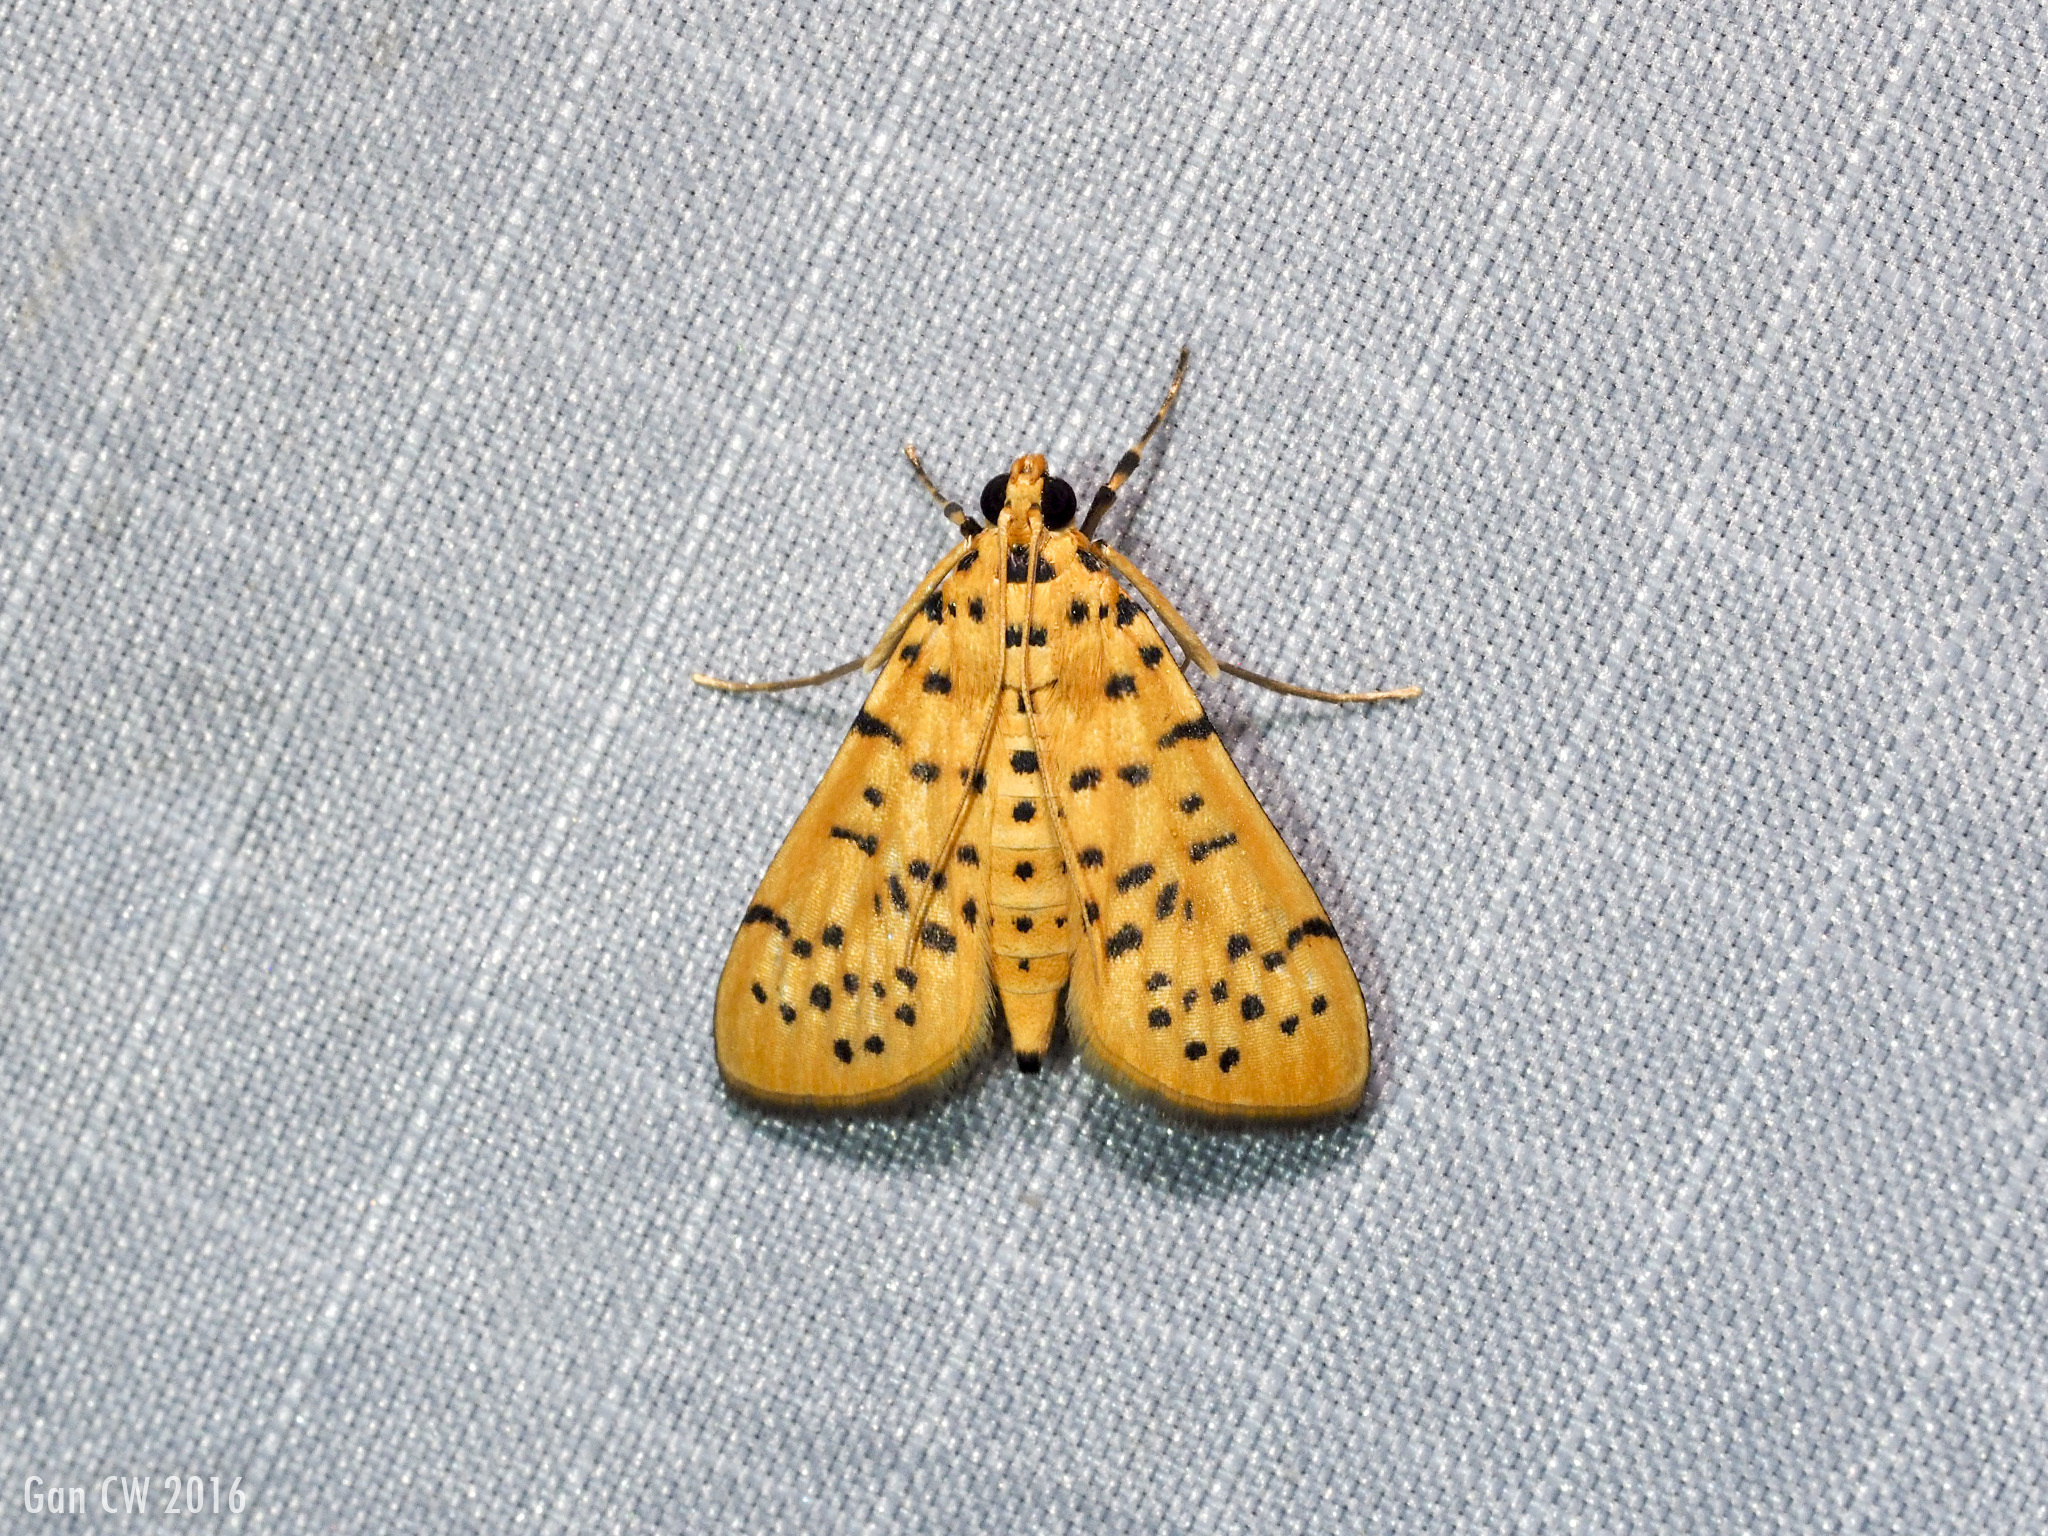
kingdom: Animalia
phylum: Arthropoda
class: Insecta
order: Lepidoptera
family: Crambidae
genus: Conogethes
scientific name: Conogethes punctiferalis
